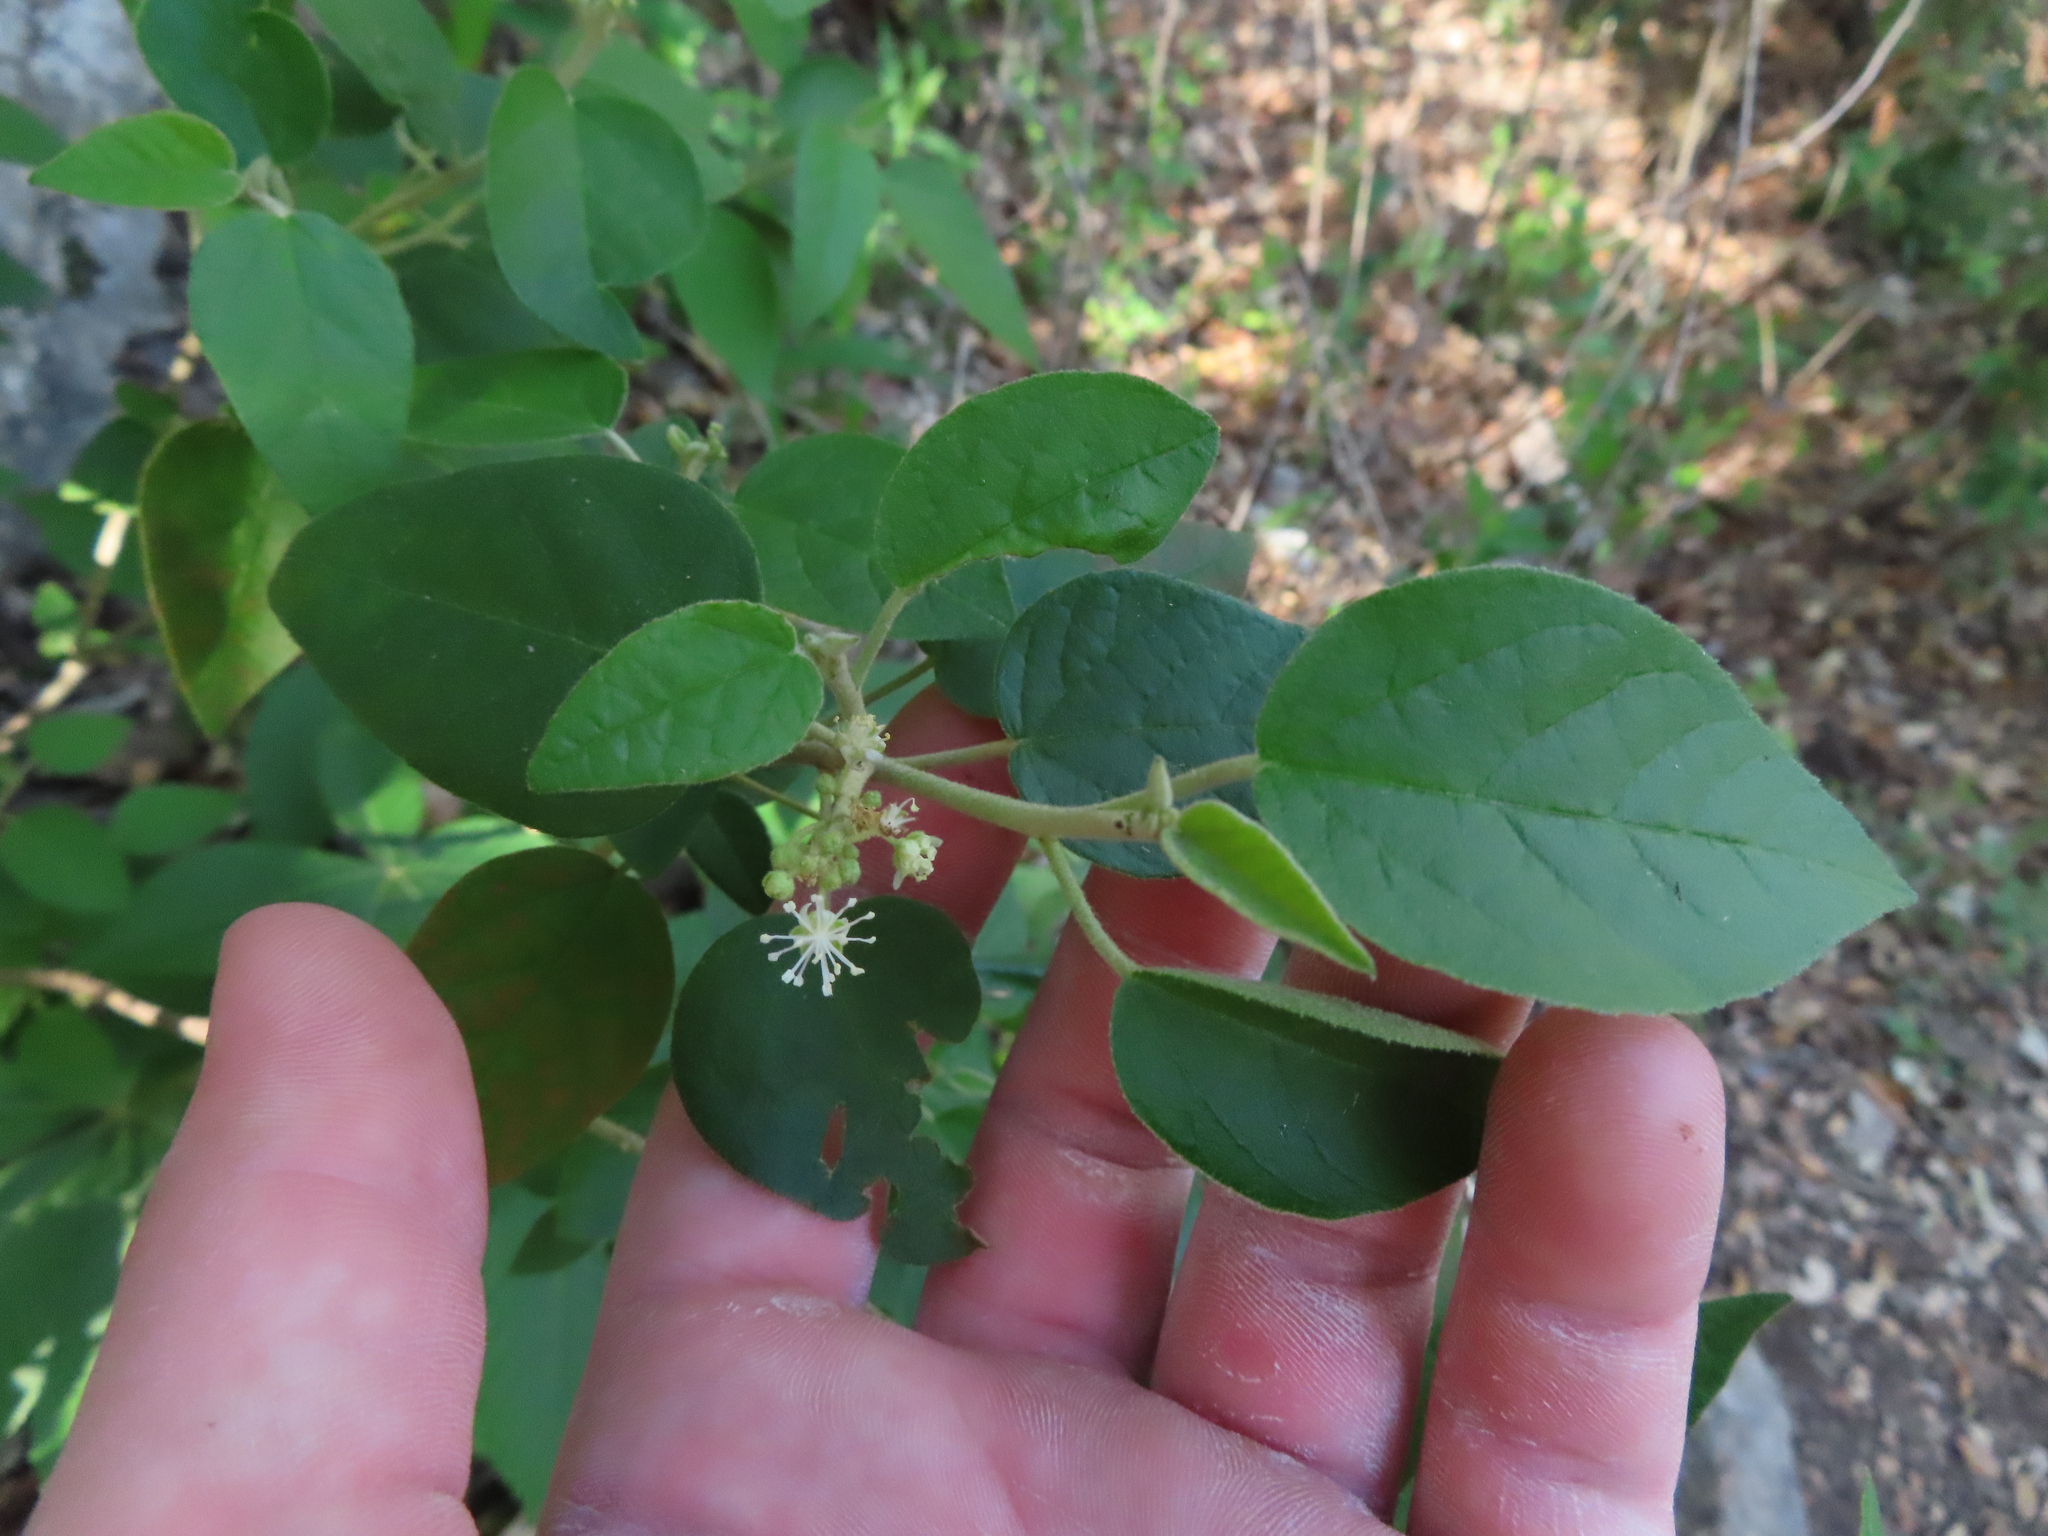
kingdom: Plantae
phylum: Tracheophyta
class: Magnoliopsida
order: Malpighiales
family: Euphorbiaceae
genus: Croton
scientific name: Croton fruticulosus
